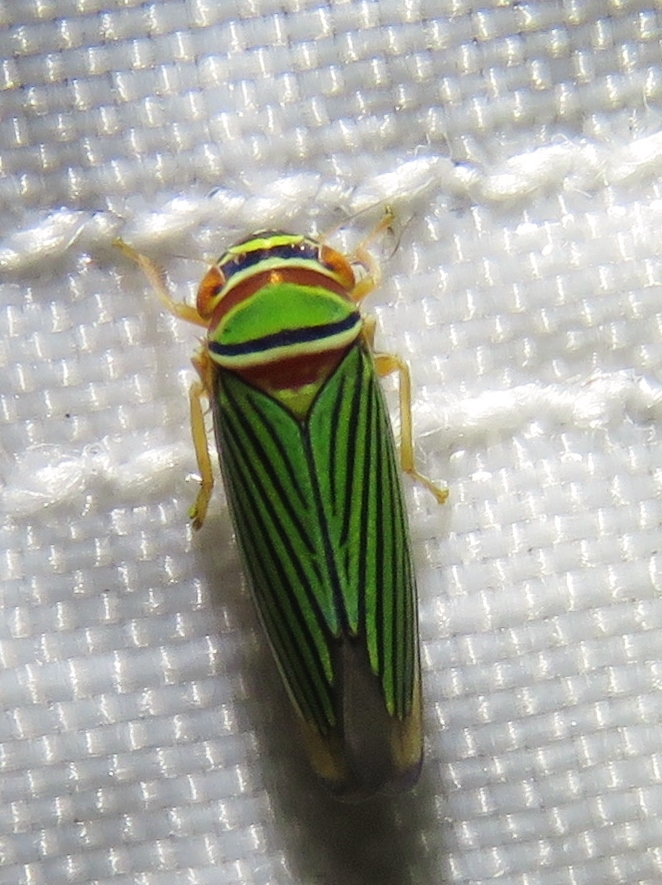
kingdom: Animalia
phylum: Arthropoda
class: Insecta
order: Hemiptera
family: Cicadellidae
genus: Tylozygus
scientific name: Tylozygus fuscolineellus
